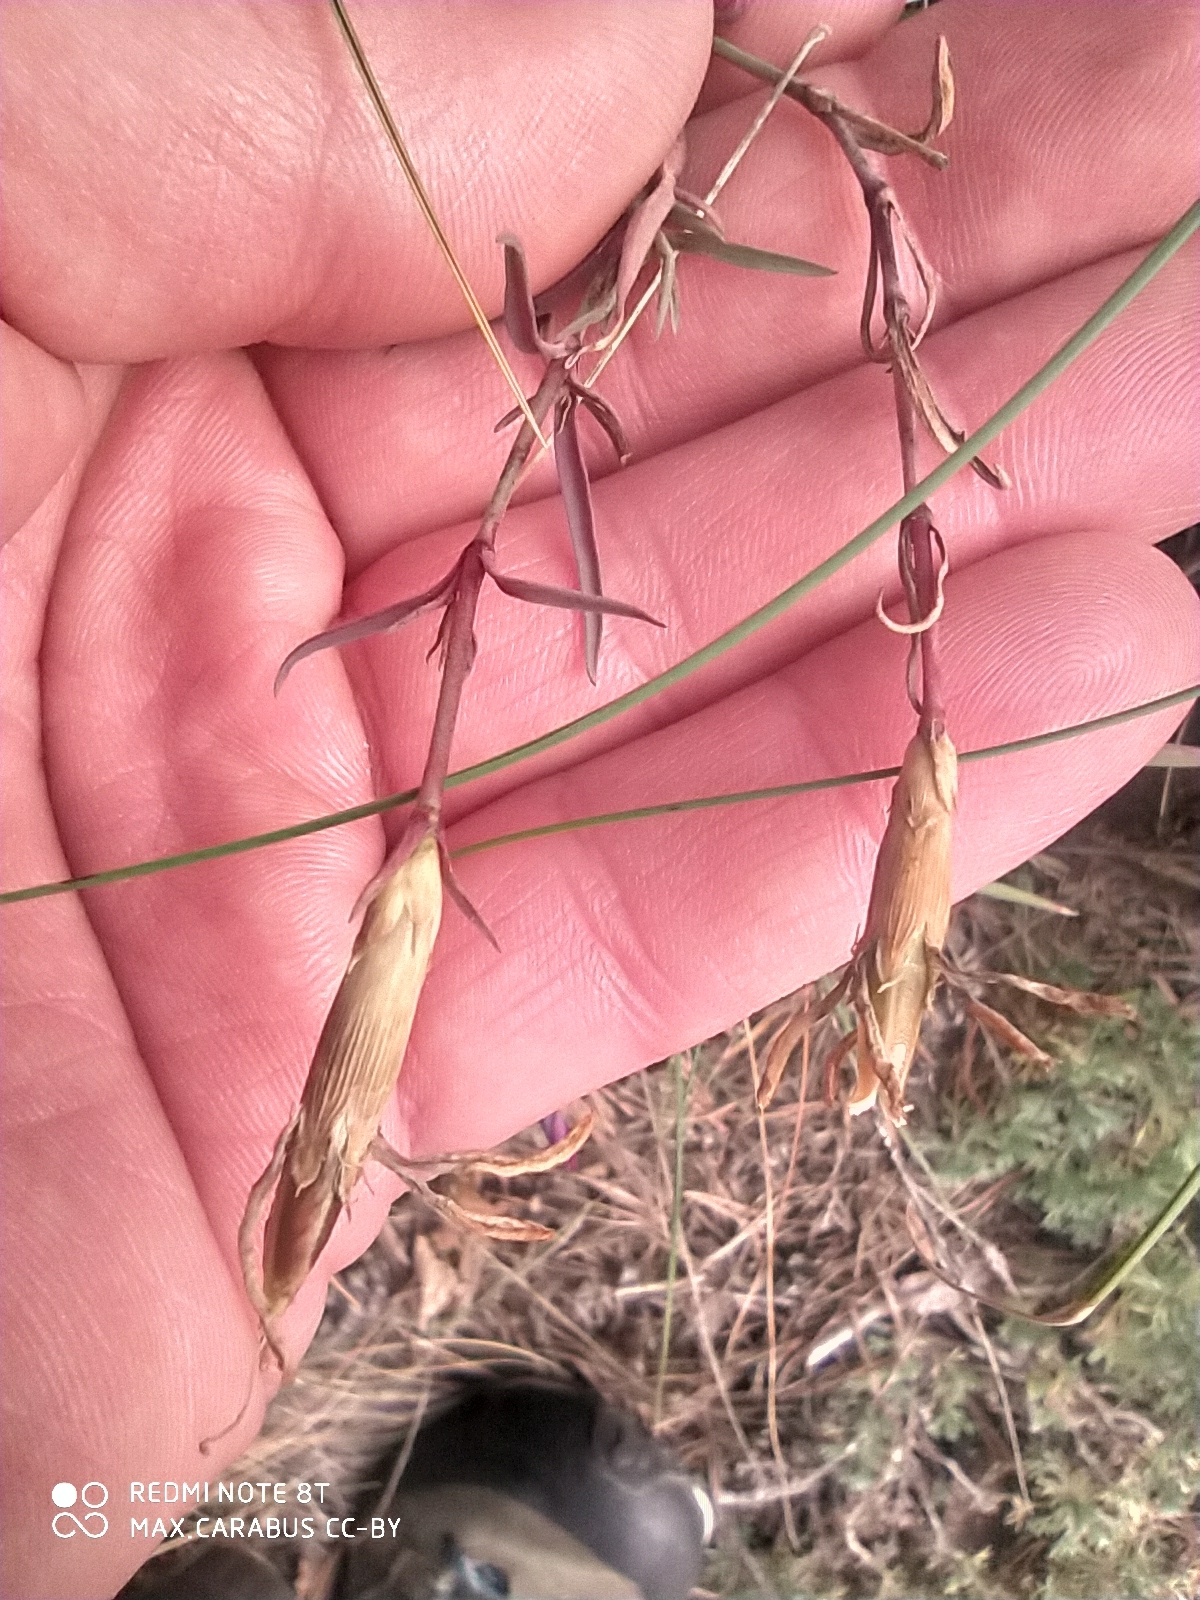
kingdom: Plantae
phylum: Tracheophyta
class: Magnoliopsida
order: Caryophyllales
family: Caryophyllaceae
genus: Dianthus
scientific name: Dianthus chinensis
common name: Rainbow pink
